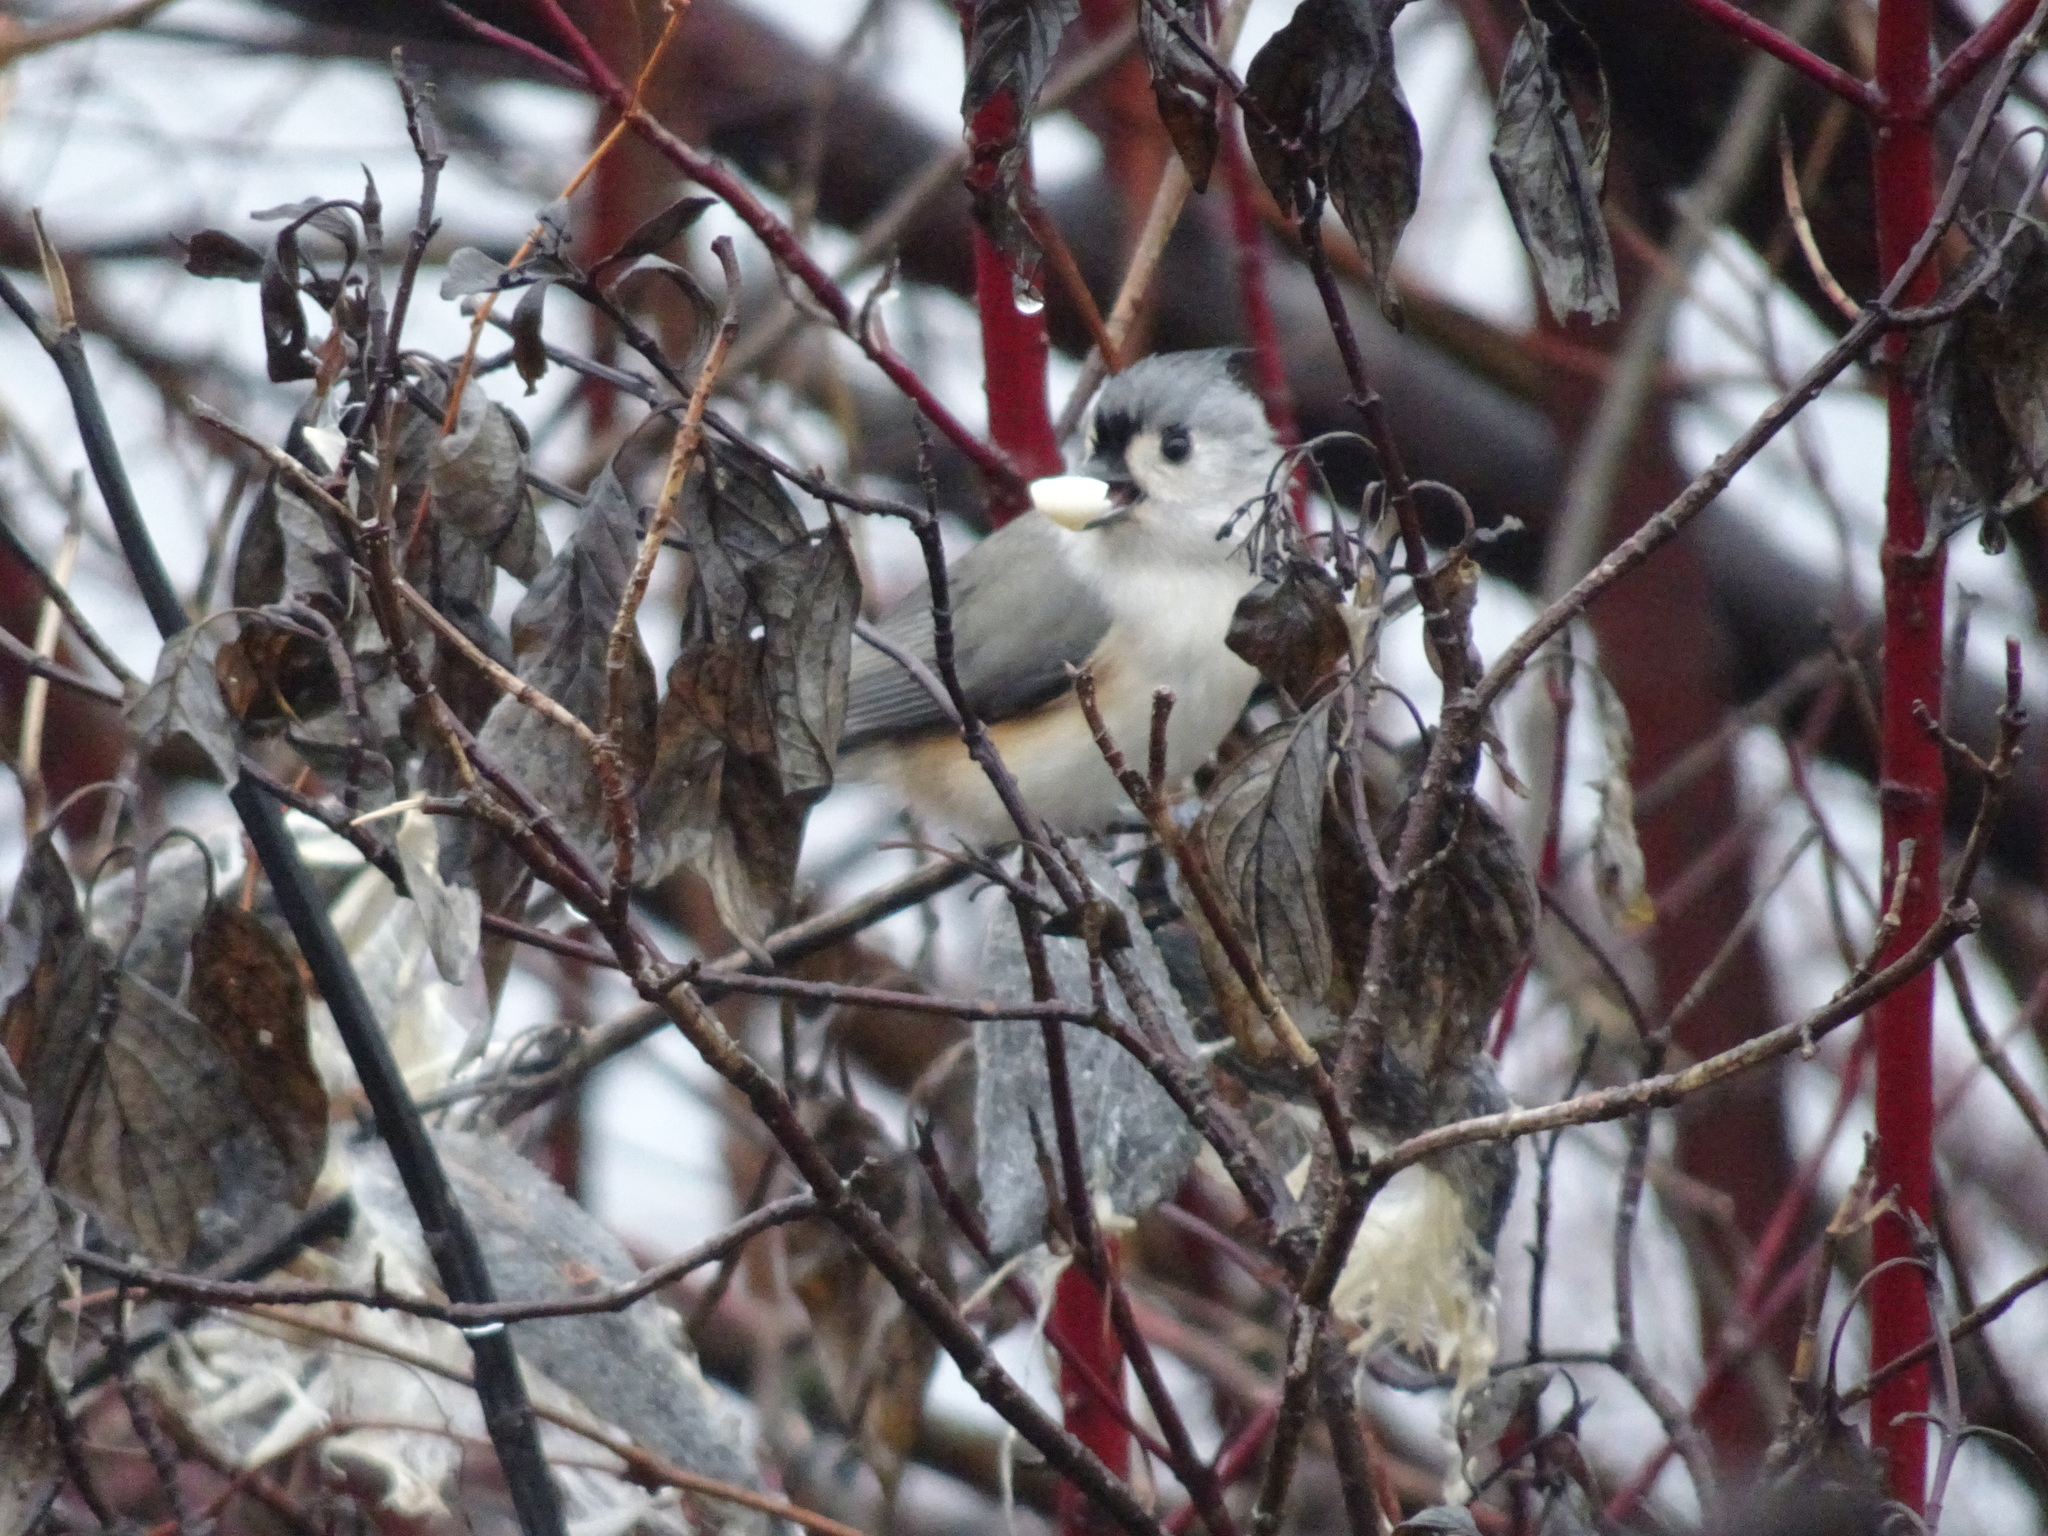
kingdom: Animalia
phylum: Chordata
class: Aves
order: Passeriformes
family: Paridae
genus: Baeolophus
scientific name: Baeolophus bicolor
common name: Tufted titmouse
